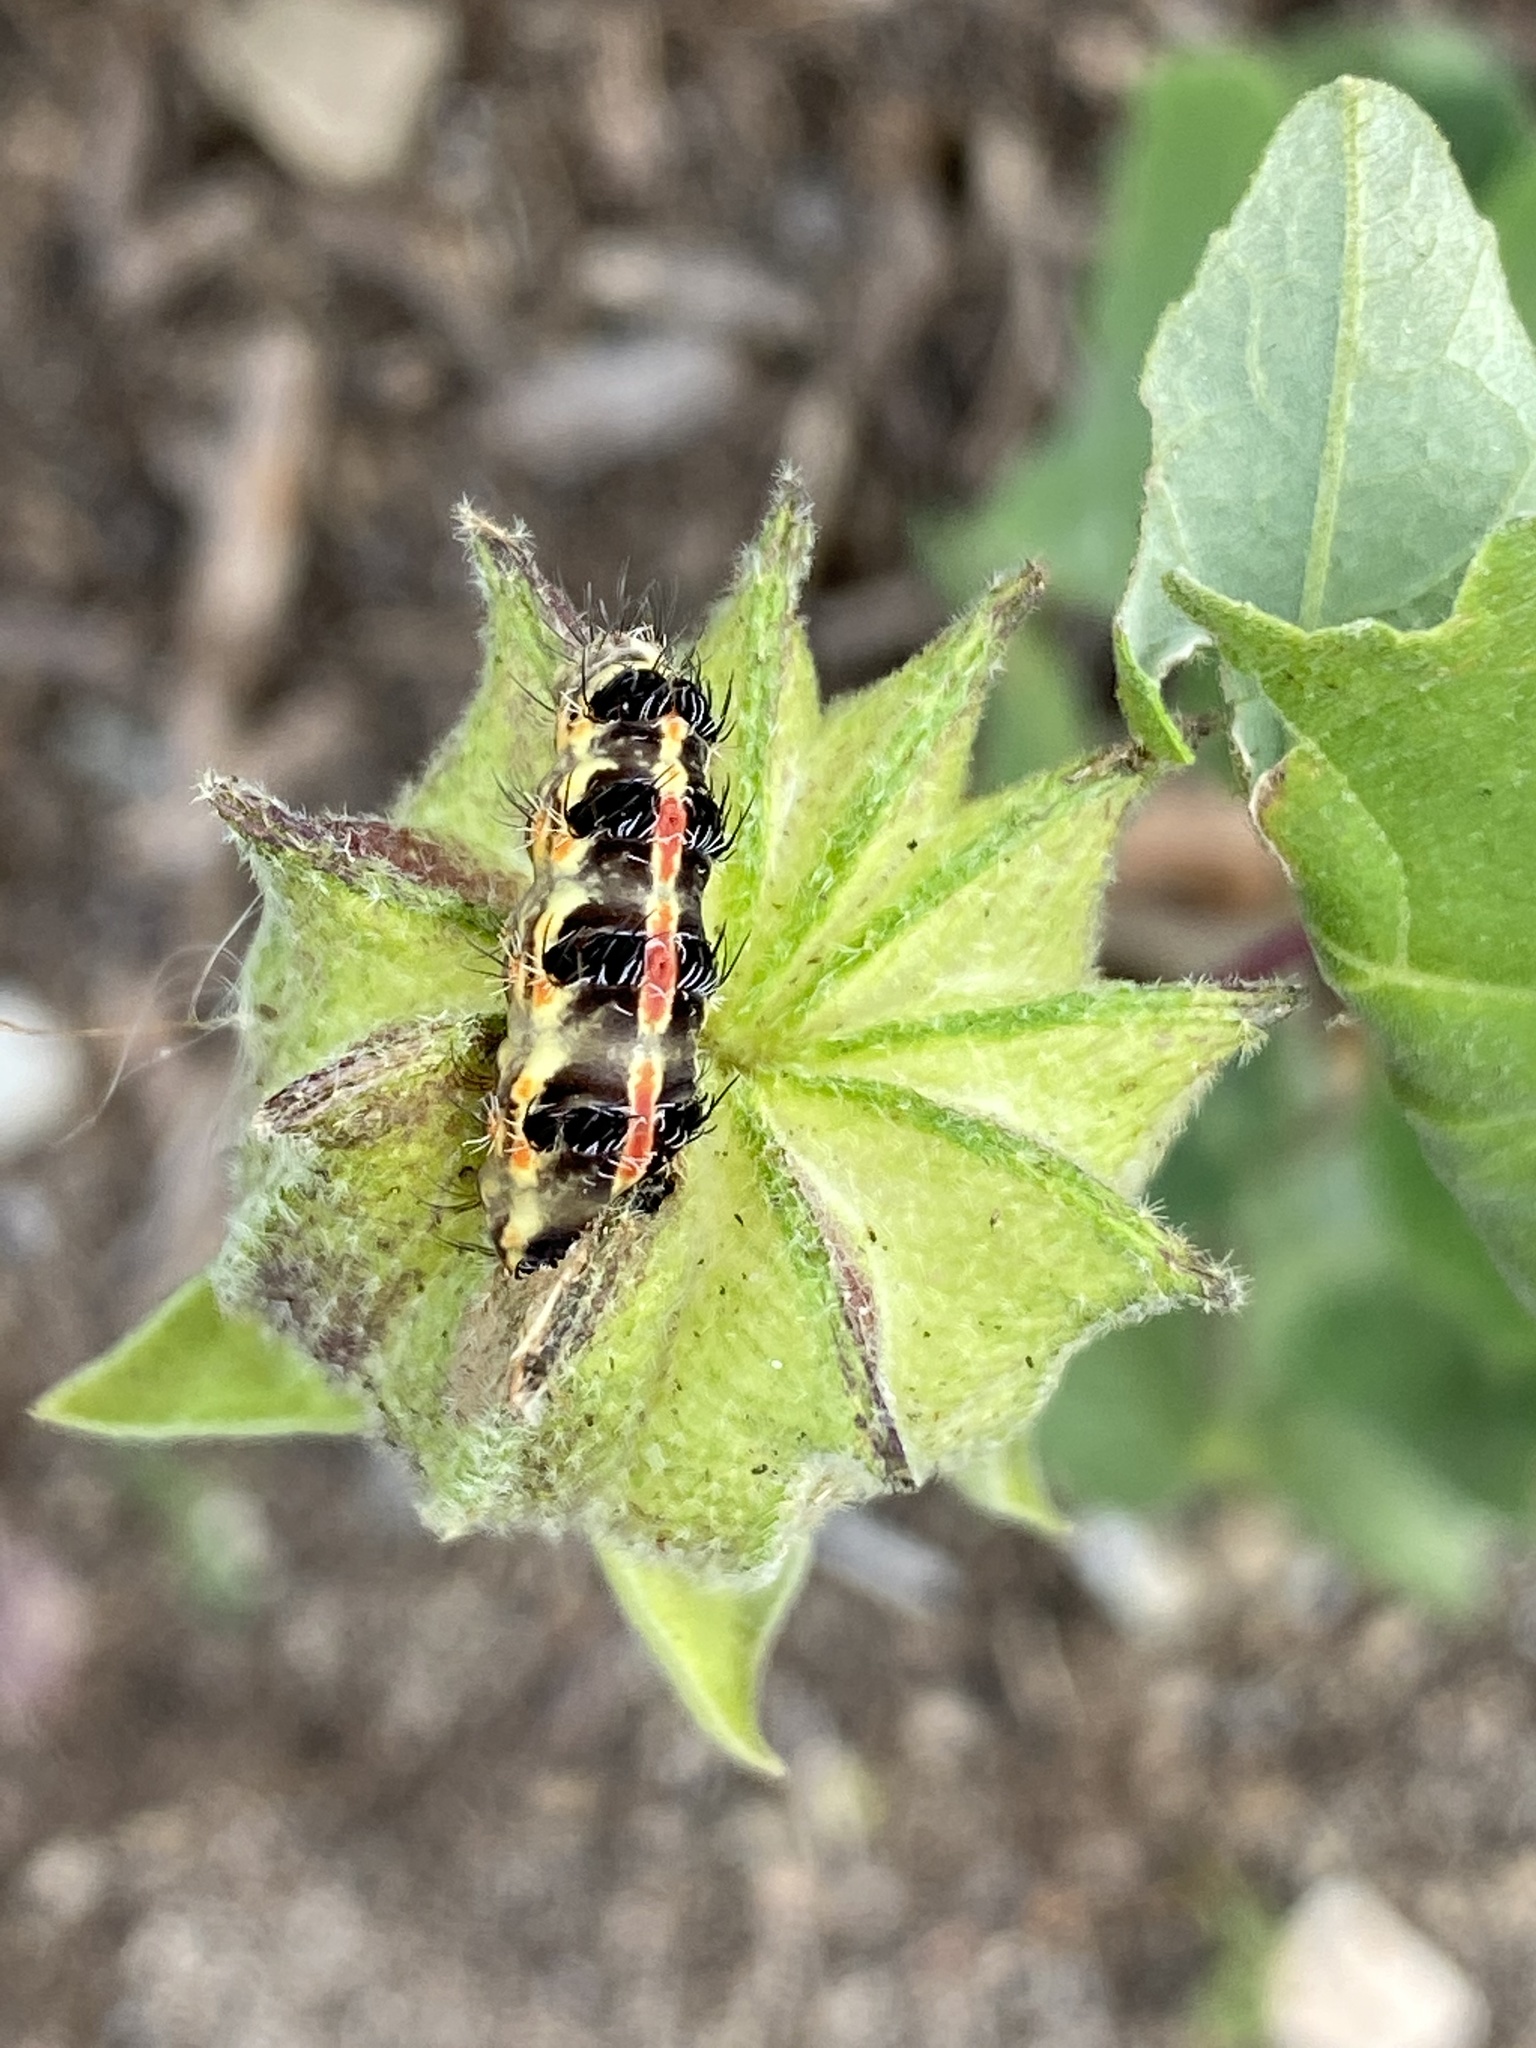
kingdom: Animalia
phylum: Arthropoda
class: Insecta
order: Lepidoptera
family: Erebidae
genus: Lacipa
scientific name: Lacipa picta
